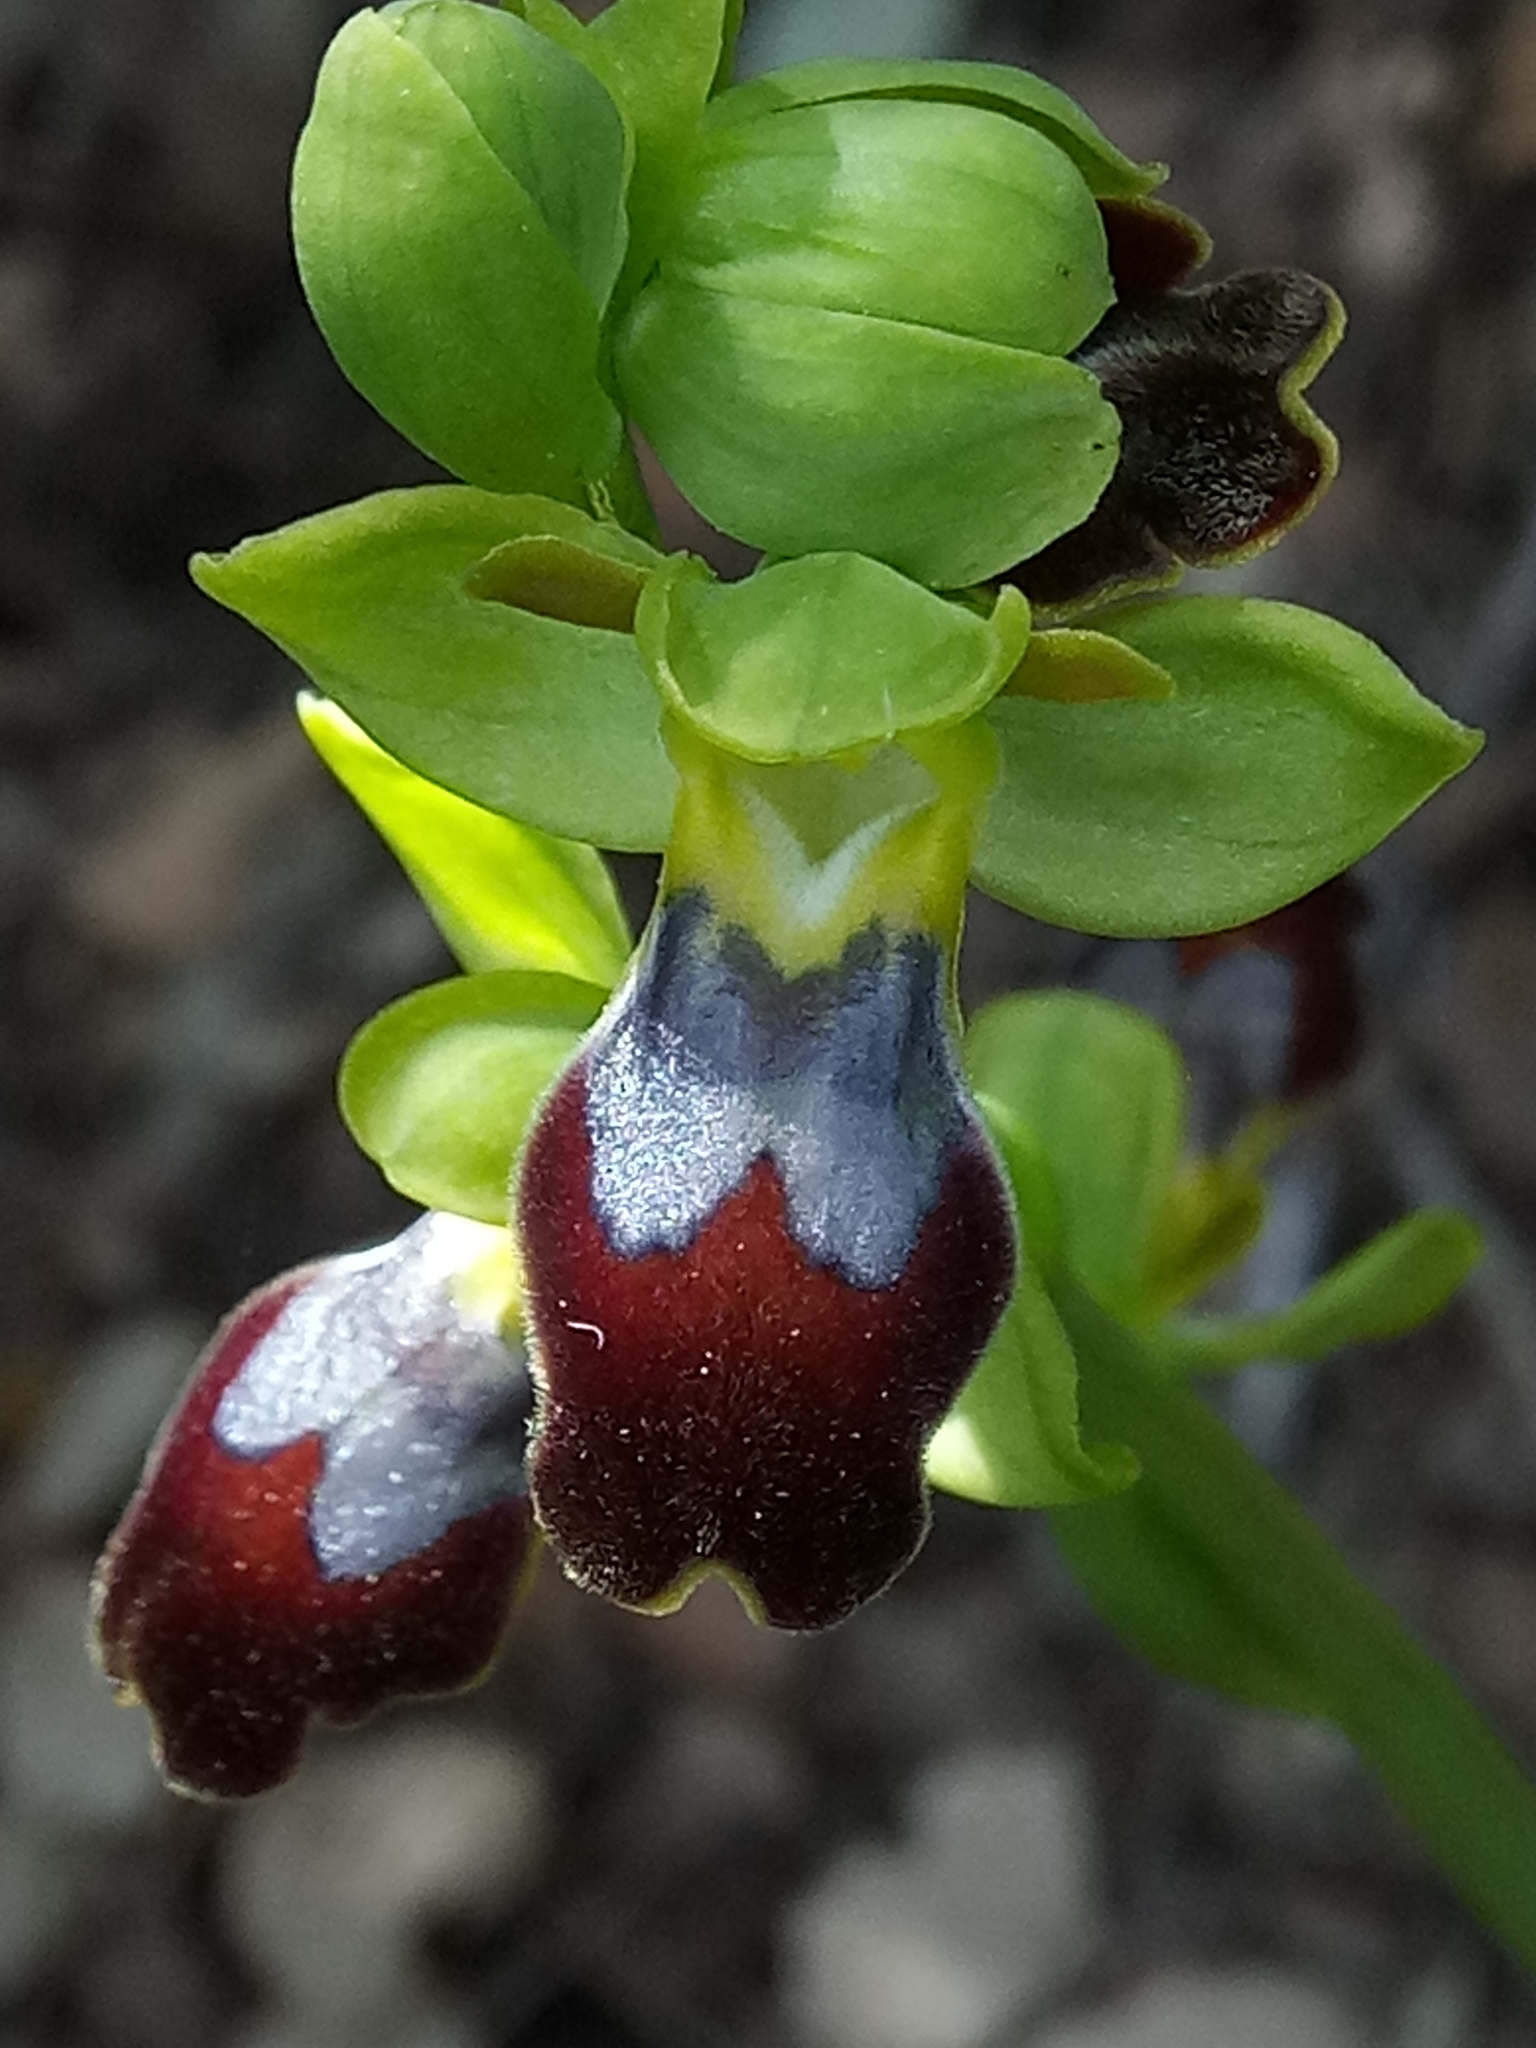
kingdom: Plantae
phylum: Tracheophyta
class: Liliopsida
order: Asparagales
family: Orchidaceae
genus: Ophrys
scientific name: Ophrys fusca
